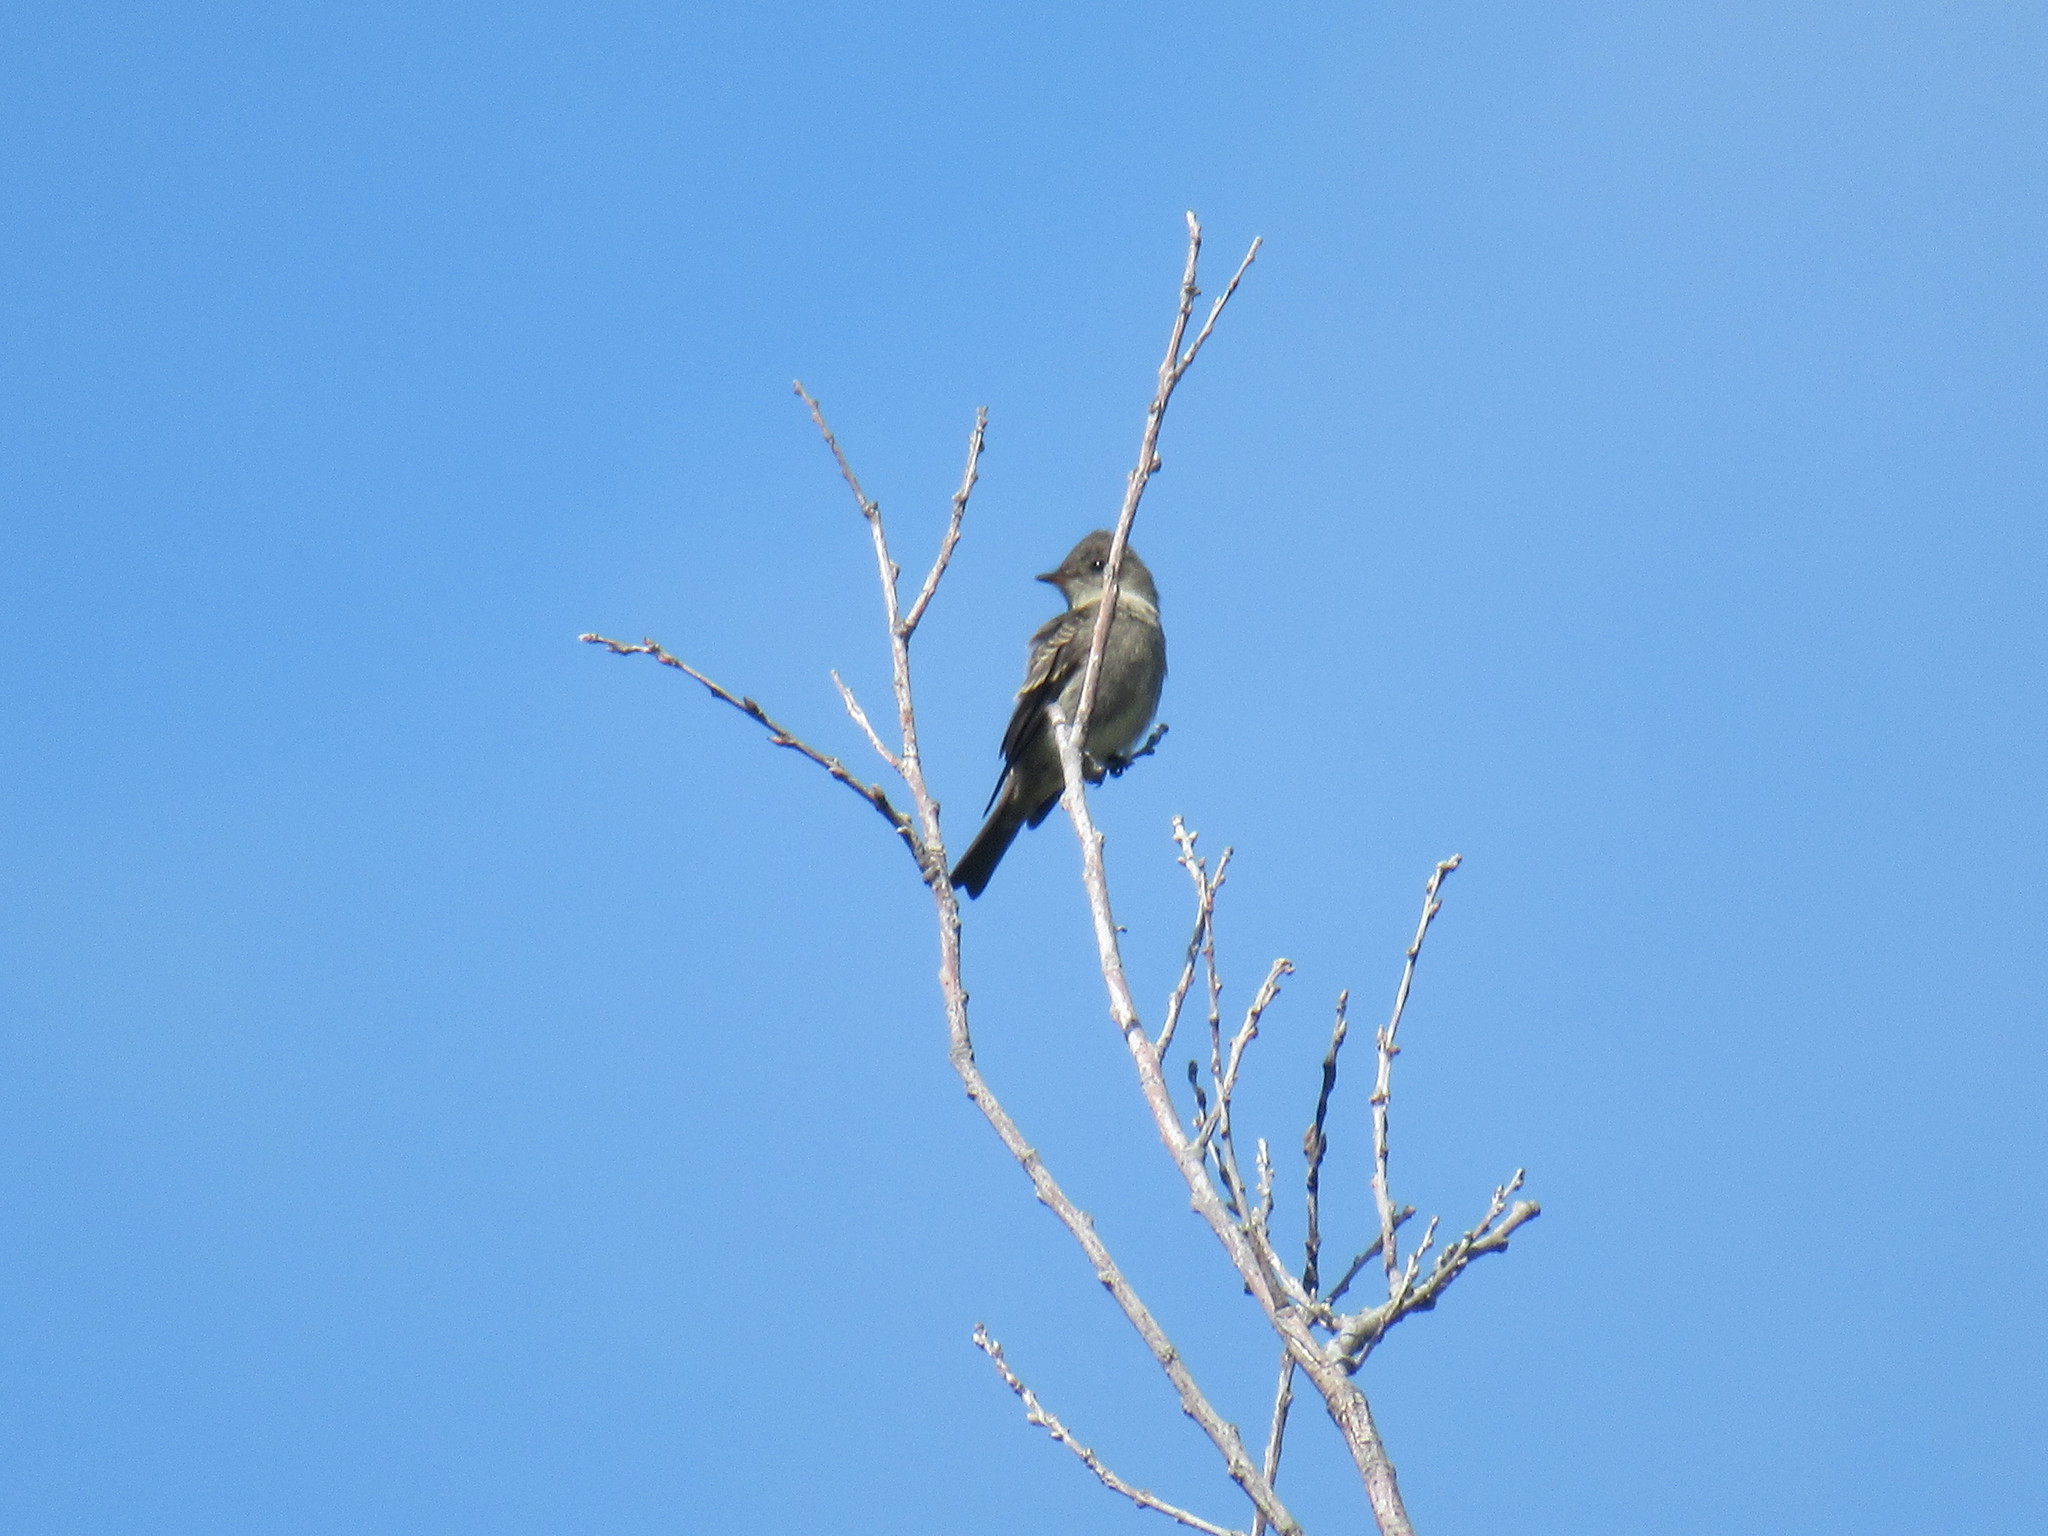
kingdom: Animalia
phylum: Chordata
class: Aves
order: Passeriformes
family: Tyrannidae
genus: Contopus
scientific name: Contopus sordidulus
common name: Western wood-pewee
